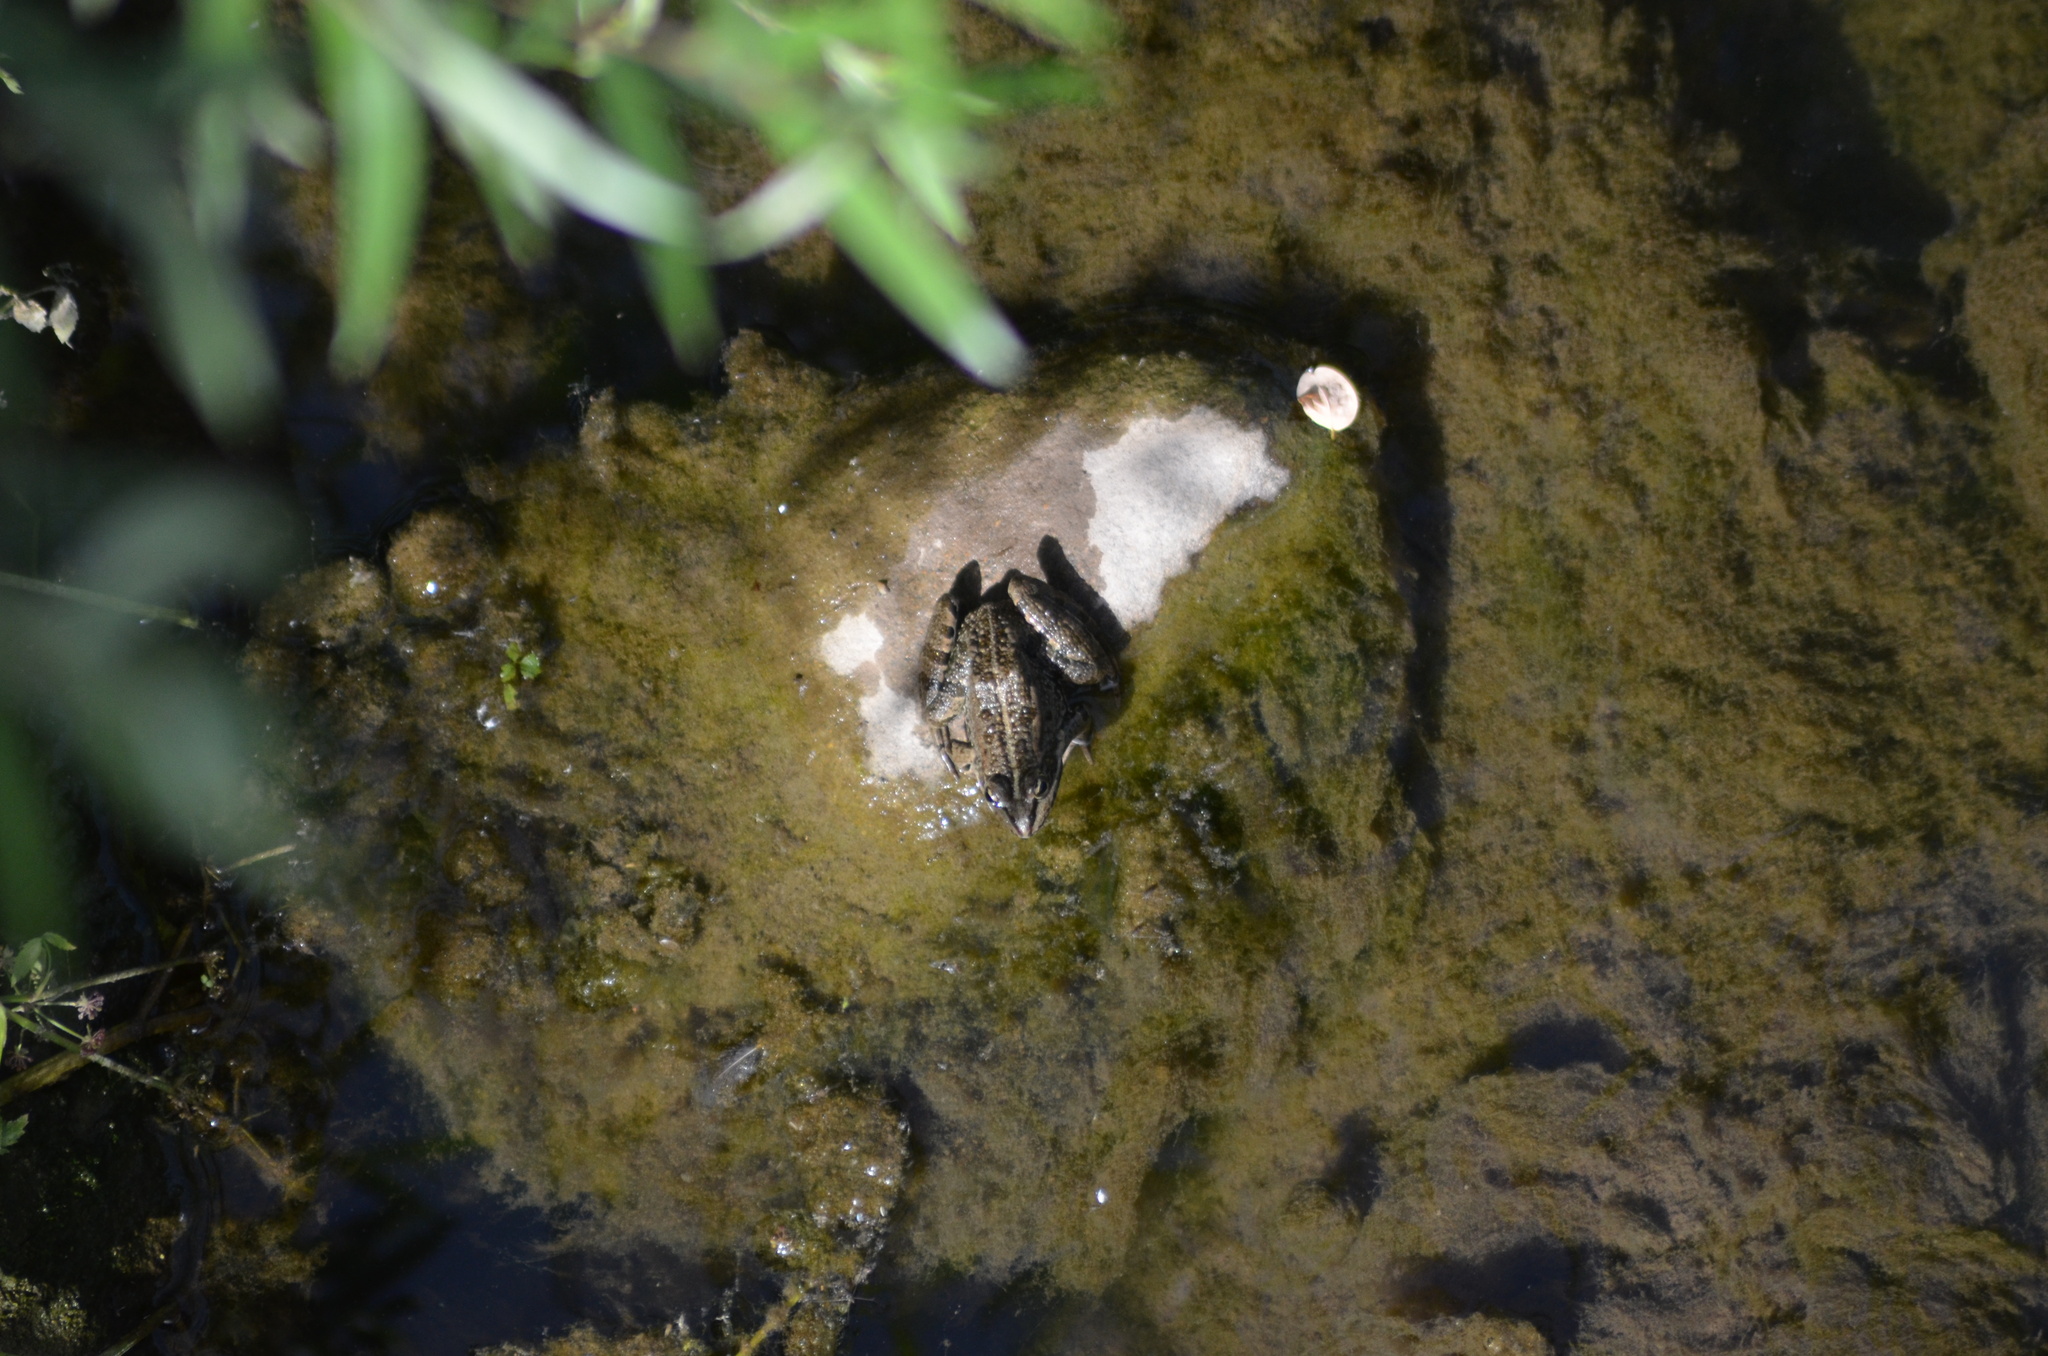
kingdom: Animalia
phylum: Chordata
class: Amphibia
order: Anura
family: Ranidae
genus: Pelophylax
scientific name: Pelophylax perezi
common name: Perez's frog
